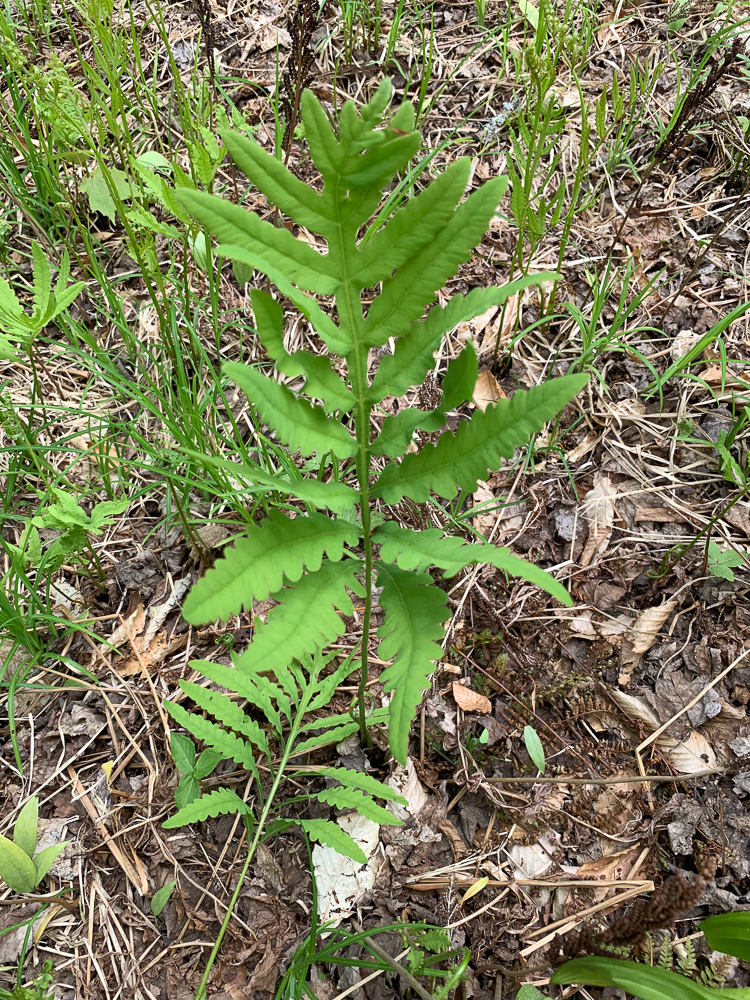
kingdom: Plantae
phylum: Tracheophyta
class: Polypodiopsida
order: Polypodiales
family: Onocleaceae
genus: Onoclea
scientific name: Onoclea sensibilis
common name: Sensitive fern
